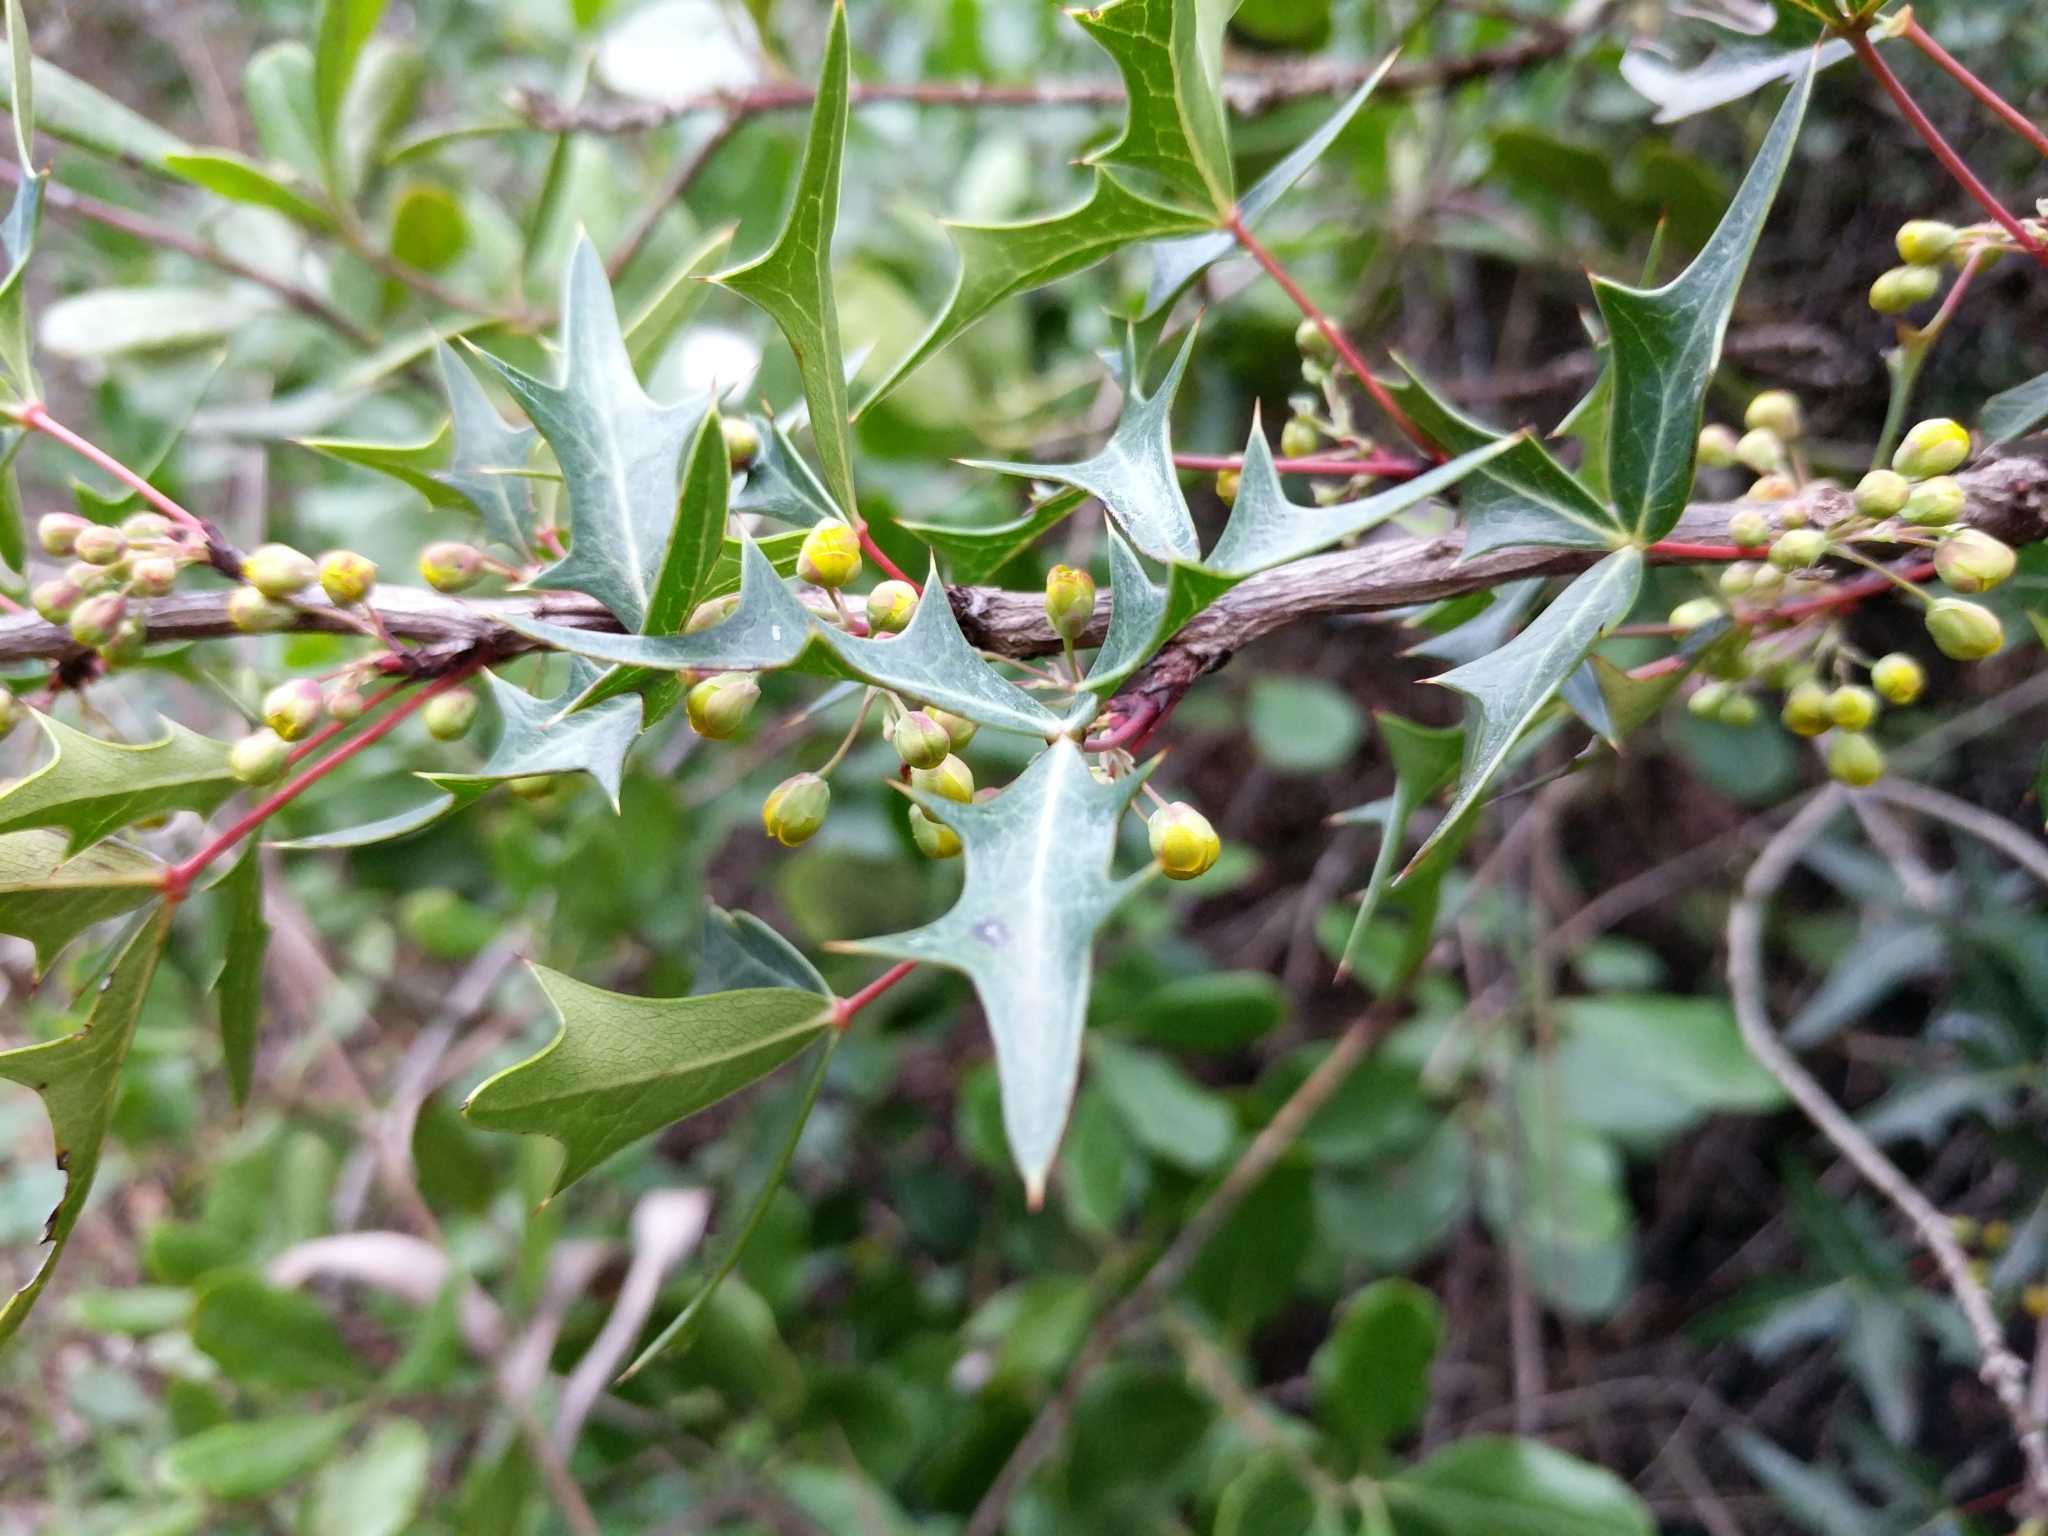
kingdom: Plantae
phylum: Tracheophyta
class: Magnoliopsida
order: Ranunculales
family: Berberidaceae
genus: Alloberberis
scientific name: Alloberberis trifoliolata
